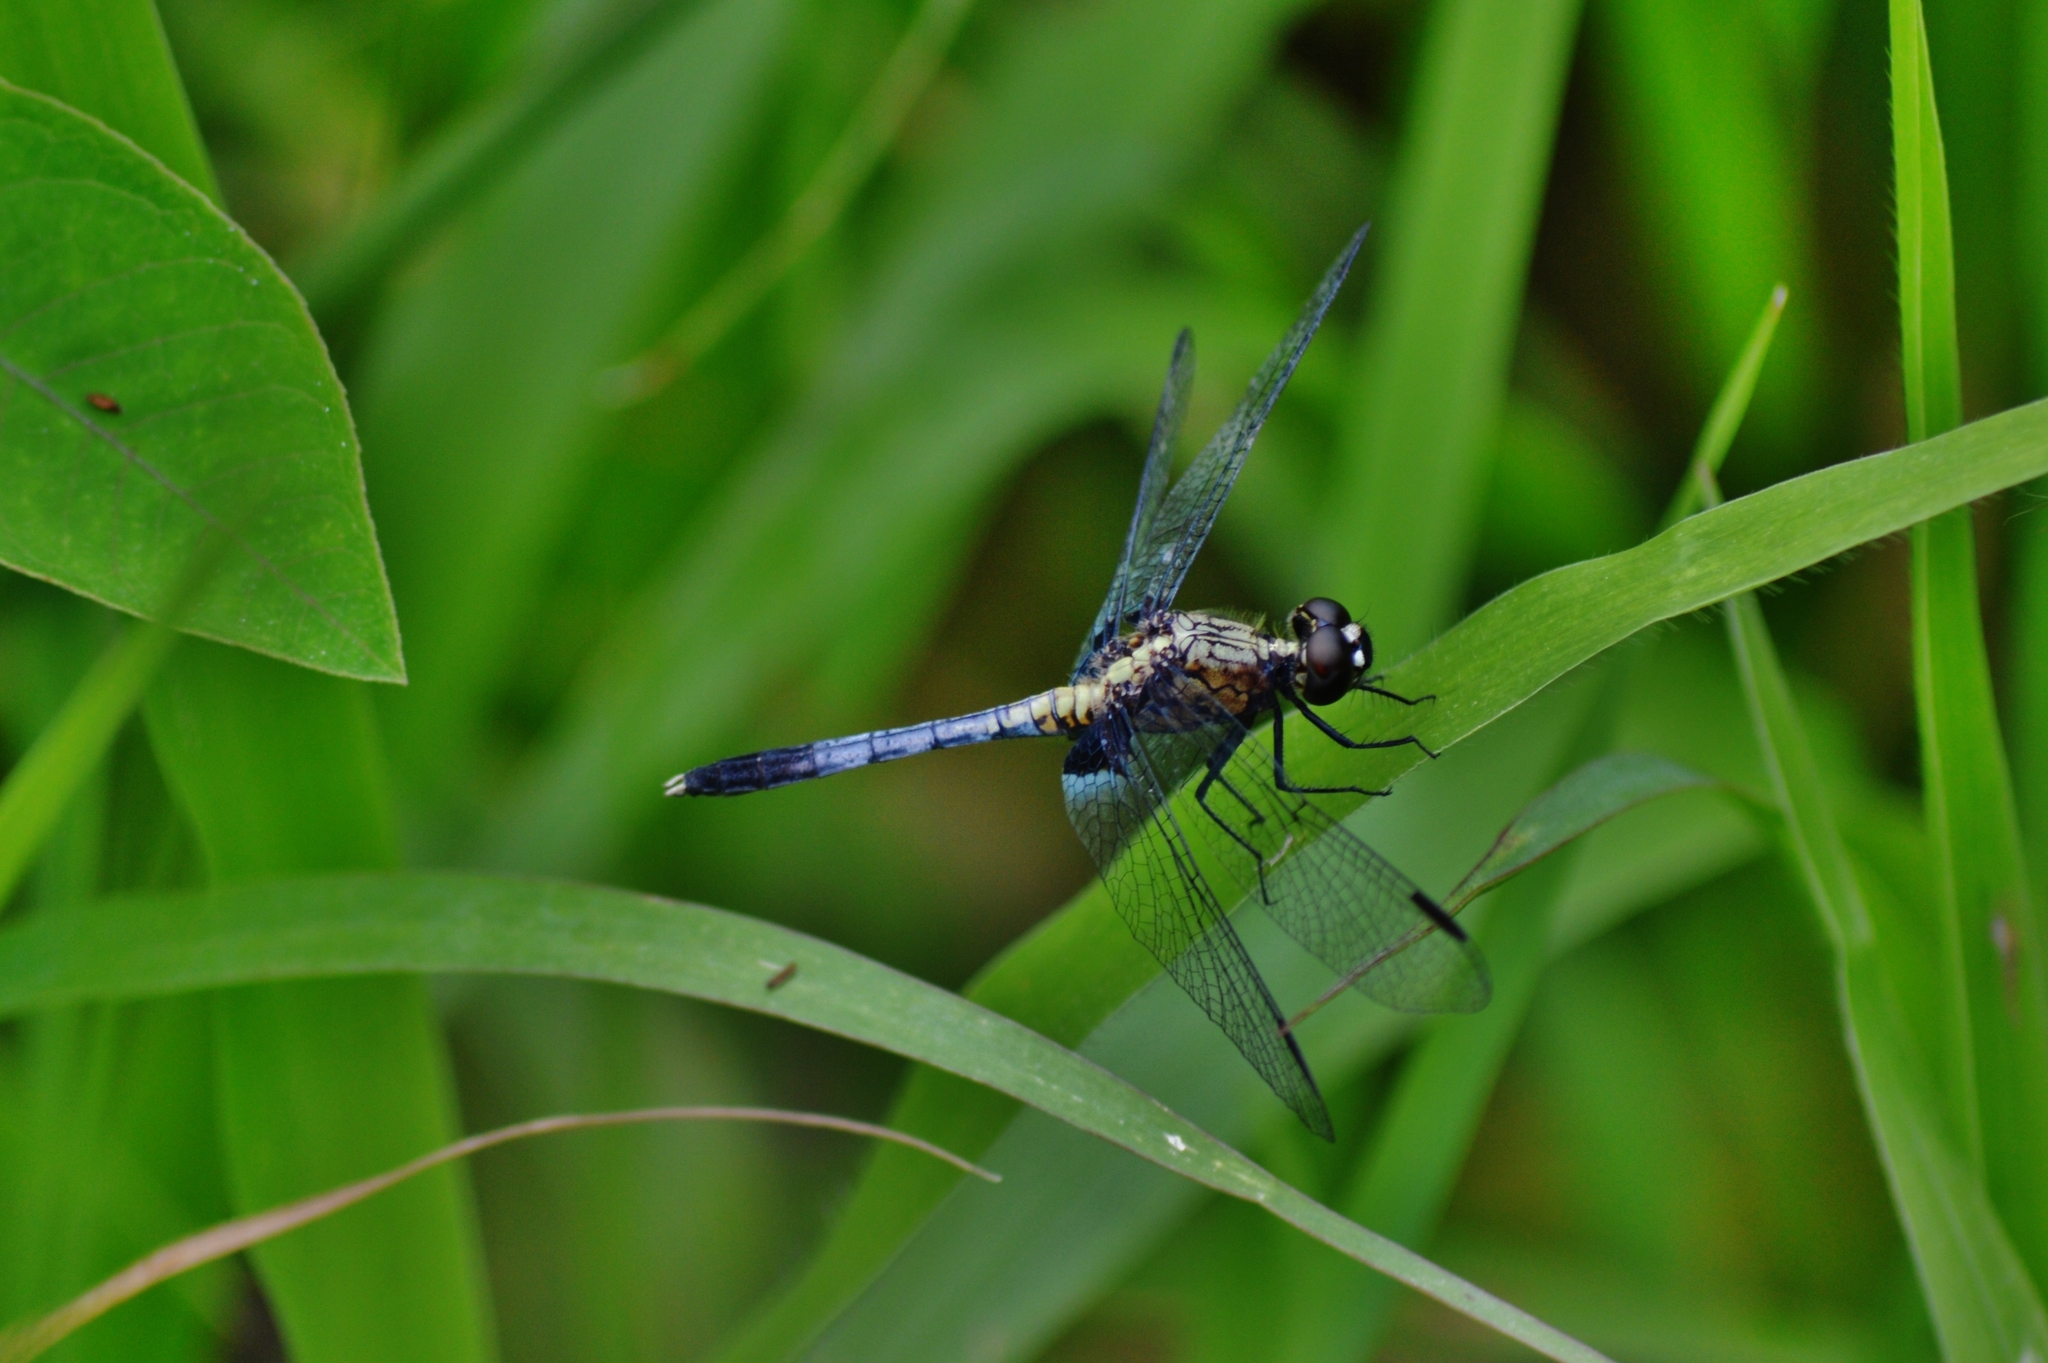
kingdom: Animalia
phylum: Arthropoda
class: Insecta
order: Odonata
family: Libellulidae
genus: Erythrodiplax
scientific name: Erythrodiplax avittata
